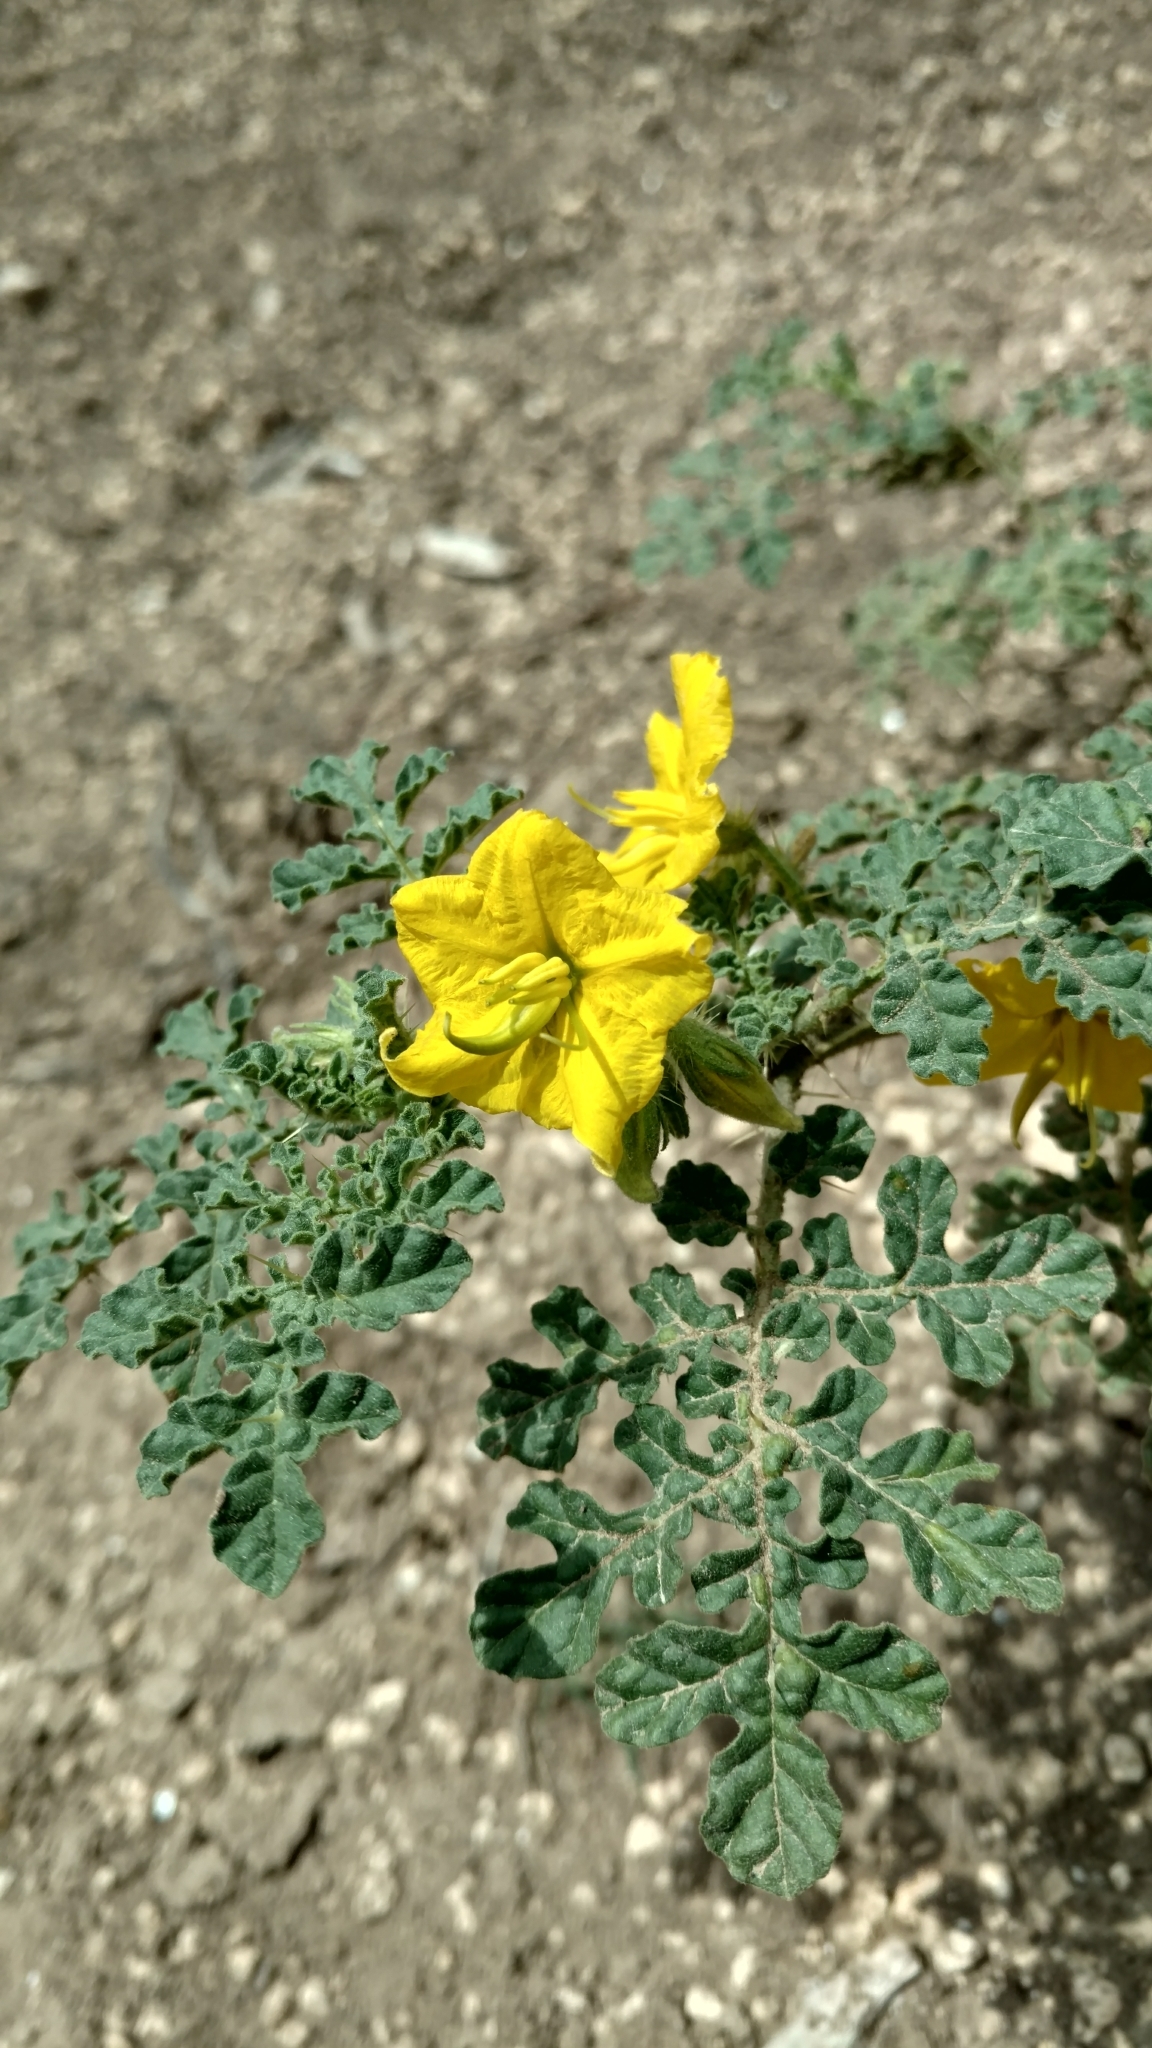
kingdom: Plantae
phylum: Tracheophyta
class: Magnoliopsida
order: Solanales
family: Solanaceae
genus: Solanum
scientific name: Solanum angustifolium
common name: Buffalobur nightshade
